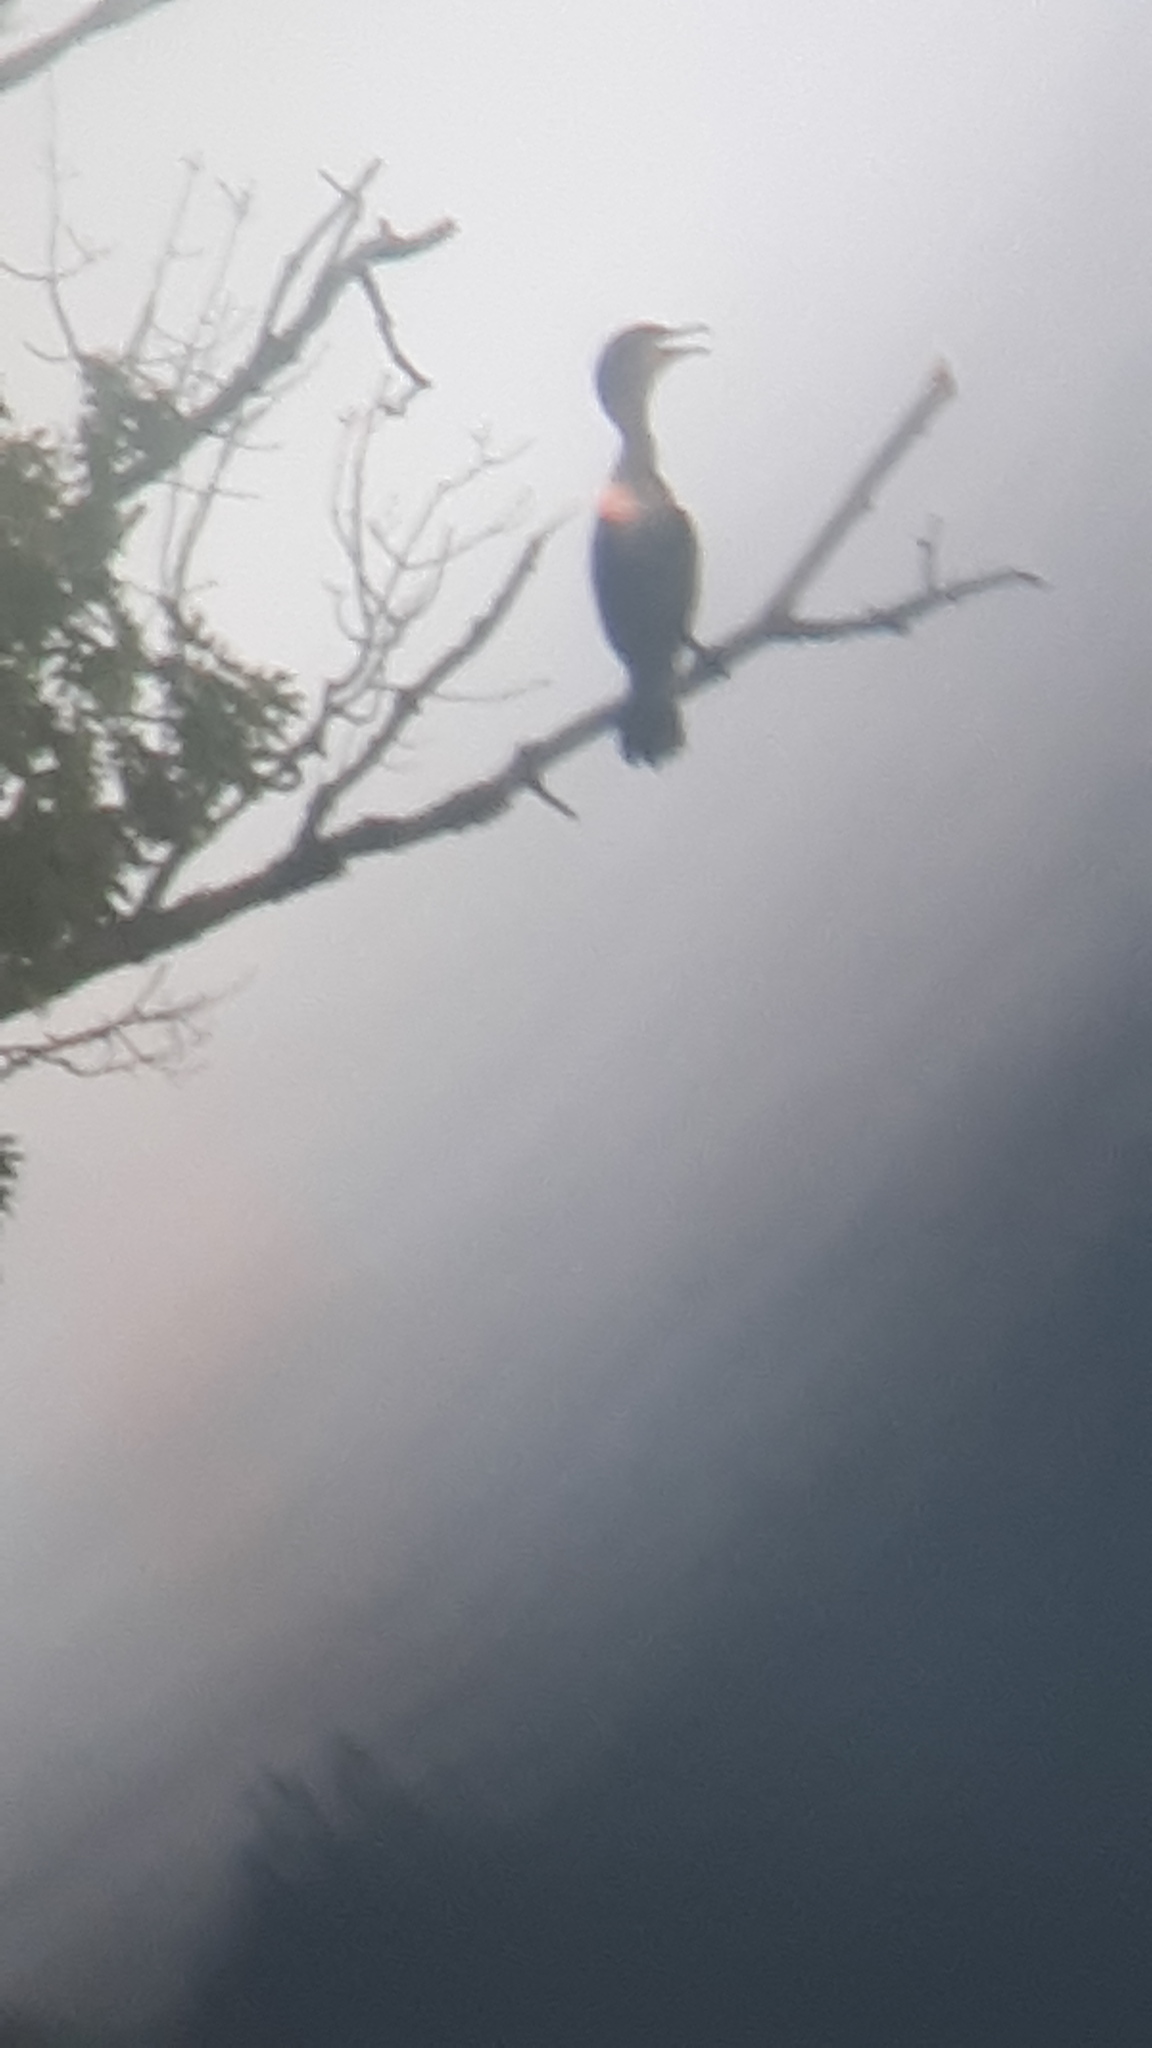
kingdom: Animalia
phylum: Chordata
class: Aves
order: Suliformes
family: Phalacrocoracidae
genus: Phalacrocorax
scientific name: Phalacrocorax auritus
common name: Double-crested cormorant
